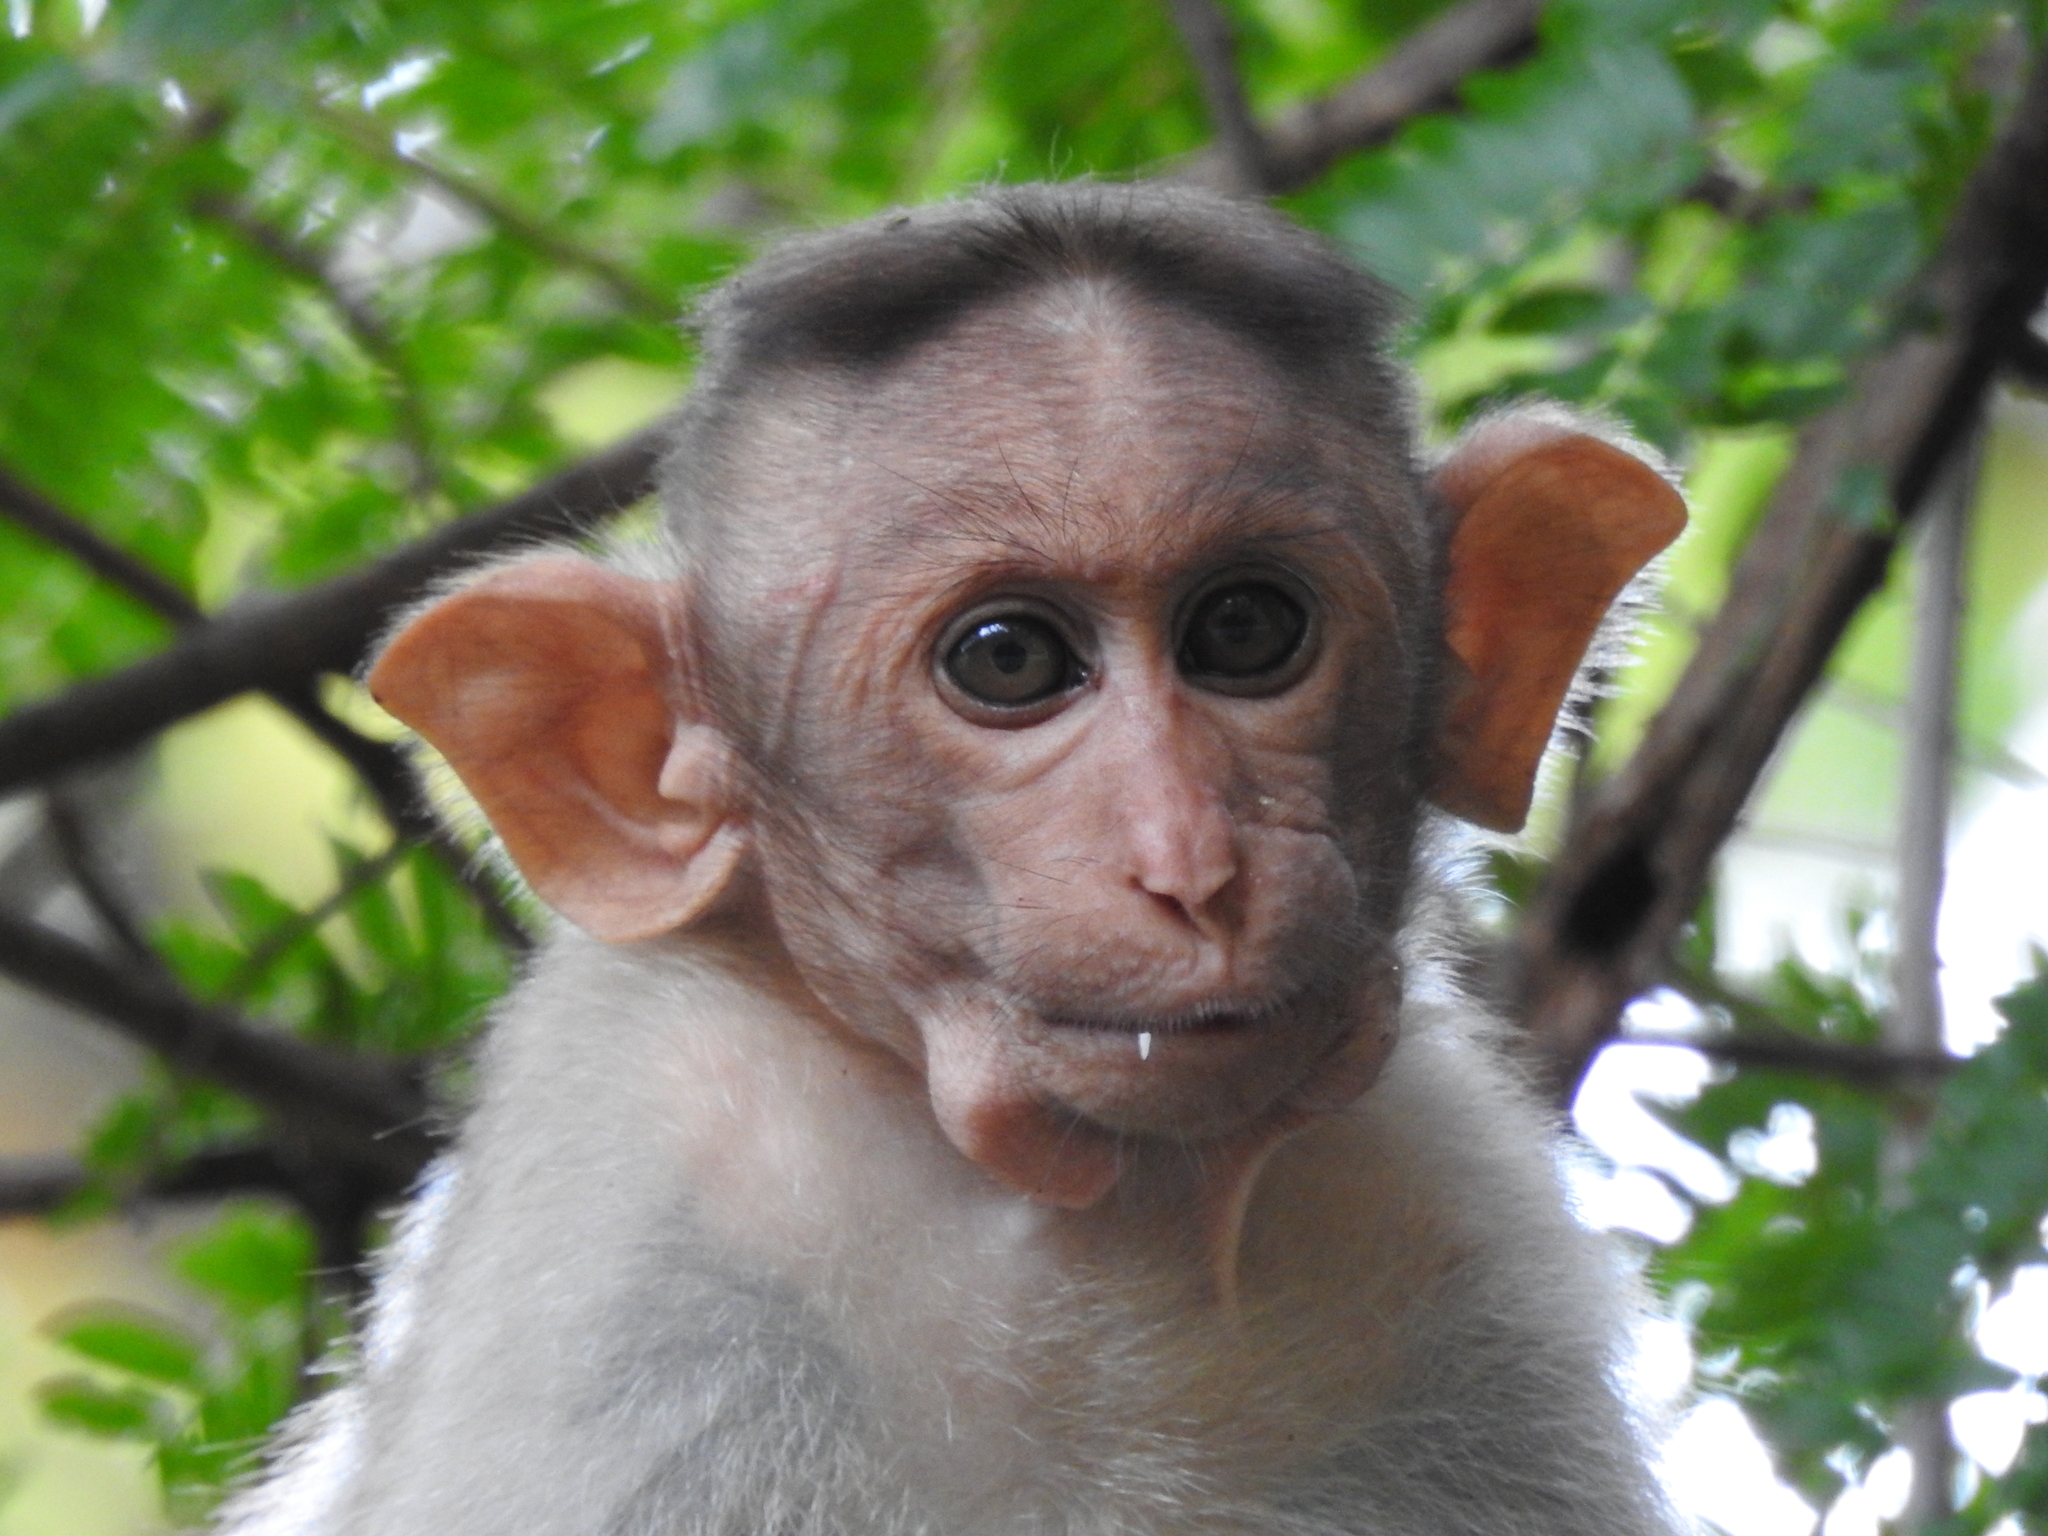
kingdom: Animalia
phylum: Chordata
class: Mammalia
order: Primates
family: Cercopithecidae
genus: Macaca
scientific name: Macaca radiata
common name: Bonnet macaque
